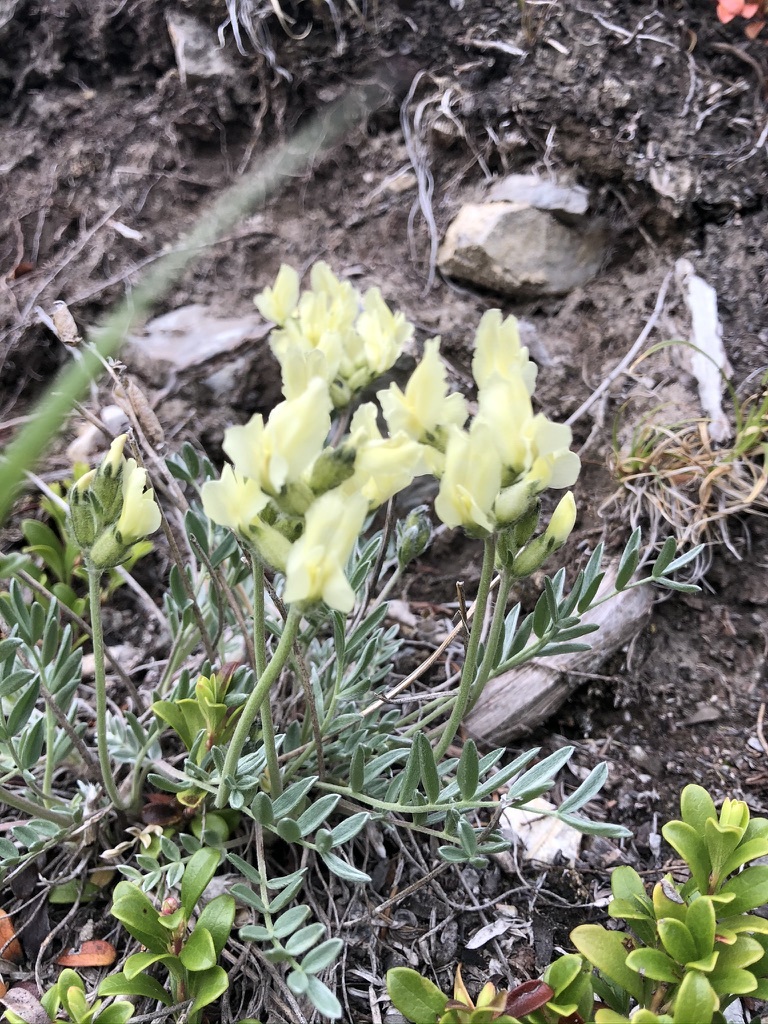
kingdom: Plantae
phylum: Tracheophyta
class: Magnoliopsida
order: Fabales
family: Fabaceae
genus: Oxytropis
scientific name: Oxytropis sericea
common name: Silky locoweed
